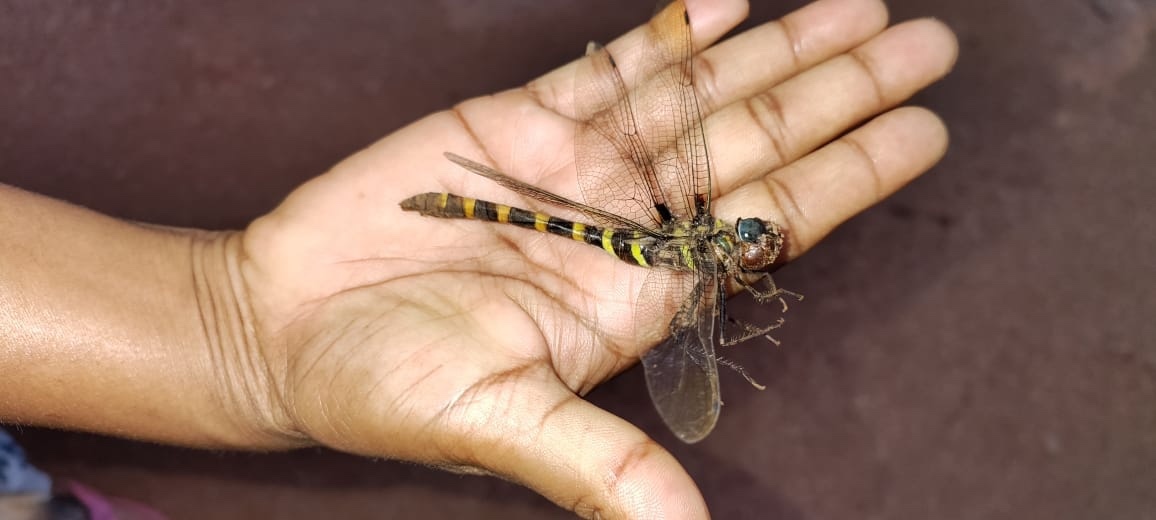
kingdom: Animalia
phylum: Arthropoda
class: Insecta
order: Odonata
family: Macromiidae
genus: Epophthalmia
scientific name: Epophthalmia vittata
